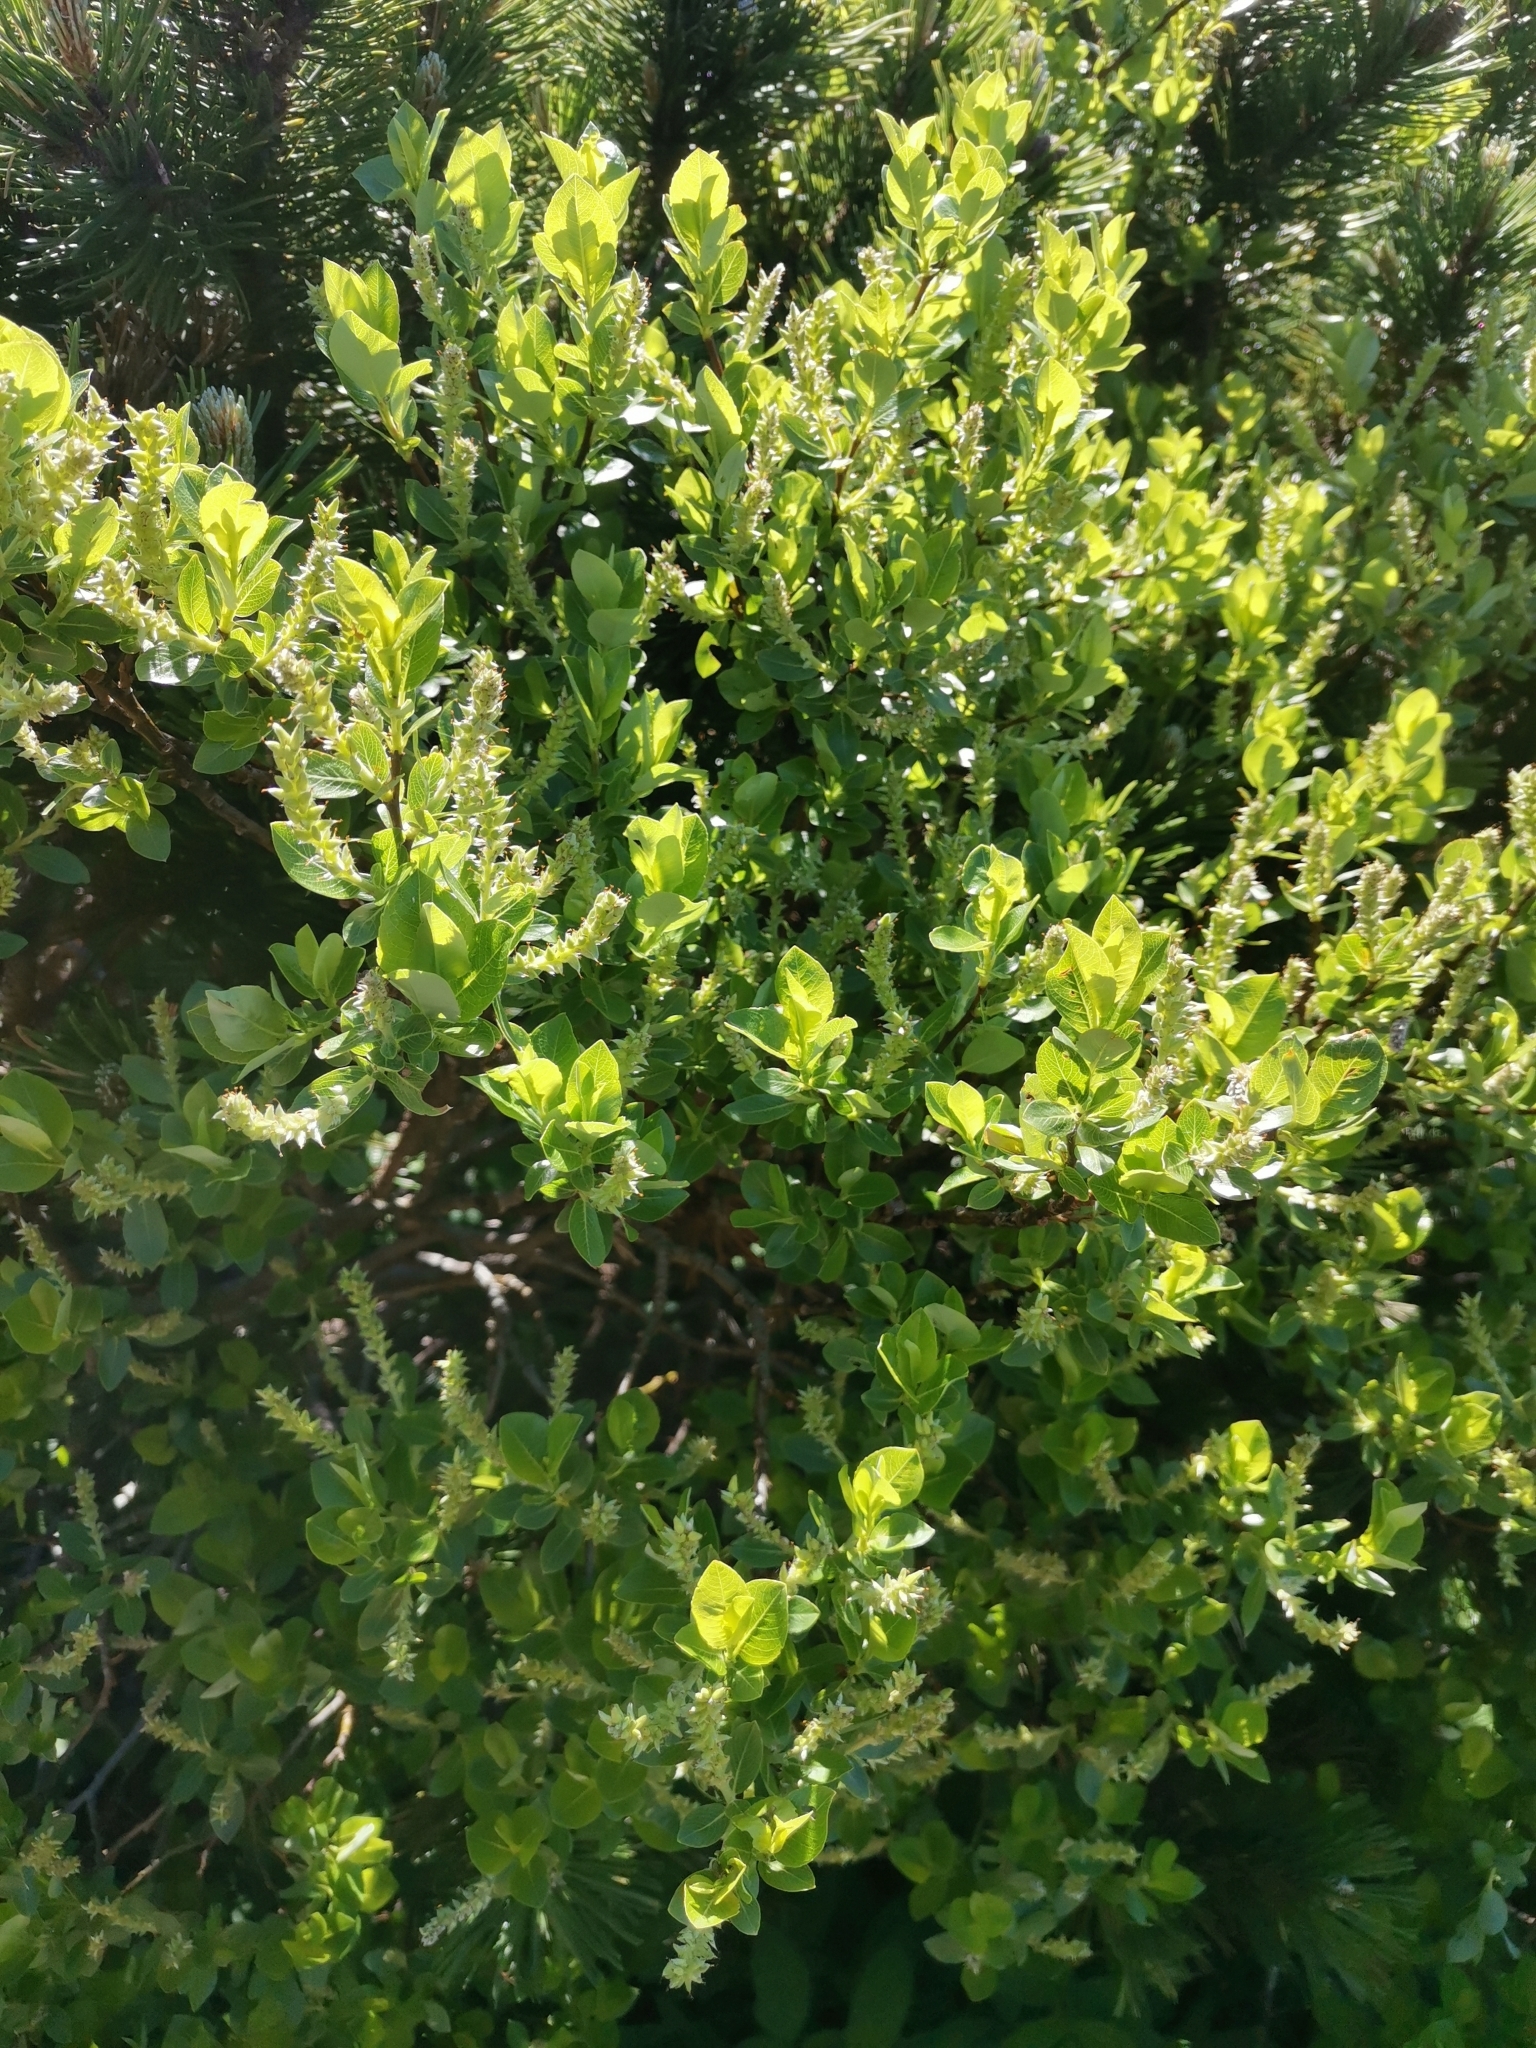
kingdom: Plantae
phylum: Tracheophyta
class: Magnoliopsida
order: Malpighiales
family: Salicaceae
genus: Salix
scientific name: Salix waldsteiniana
